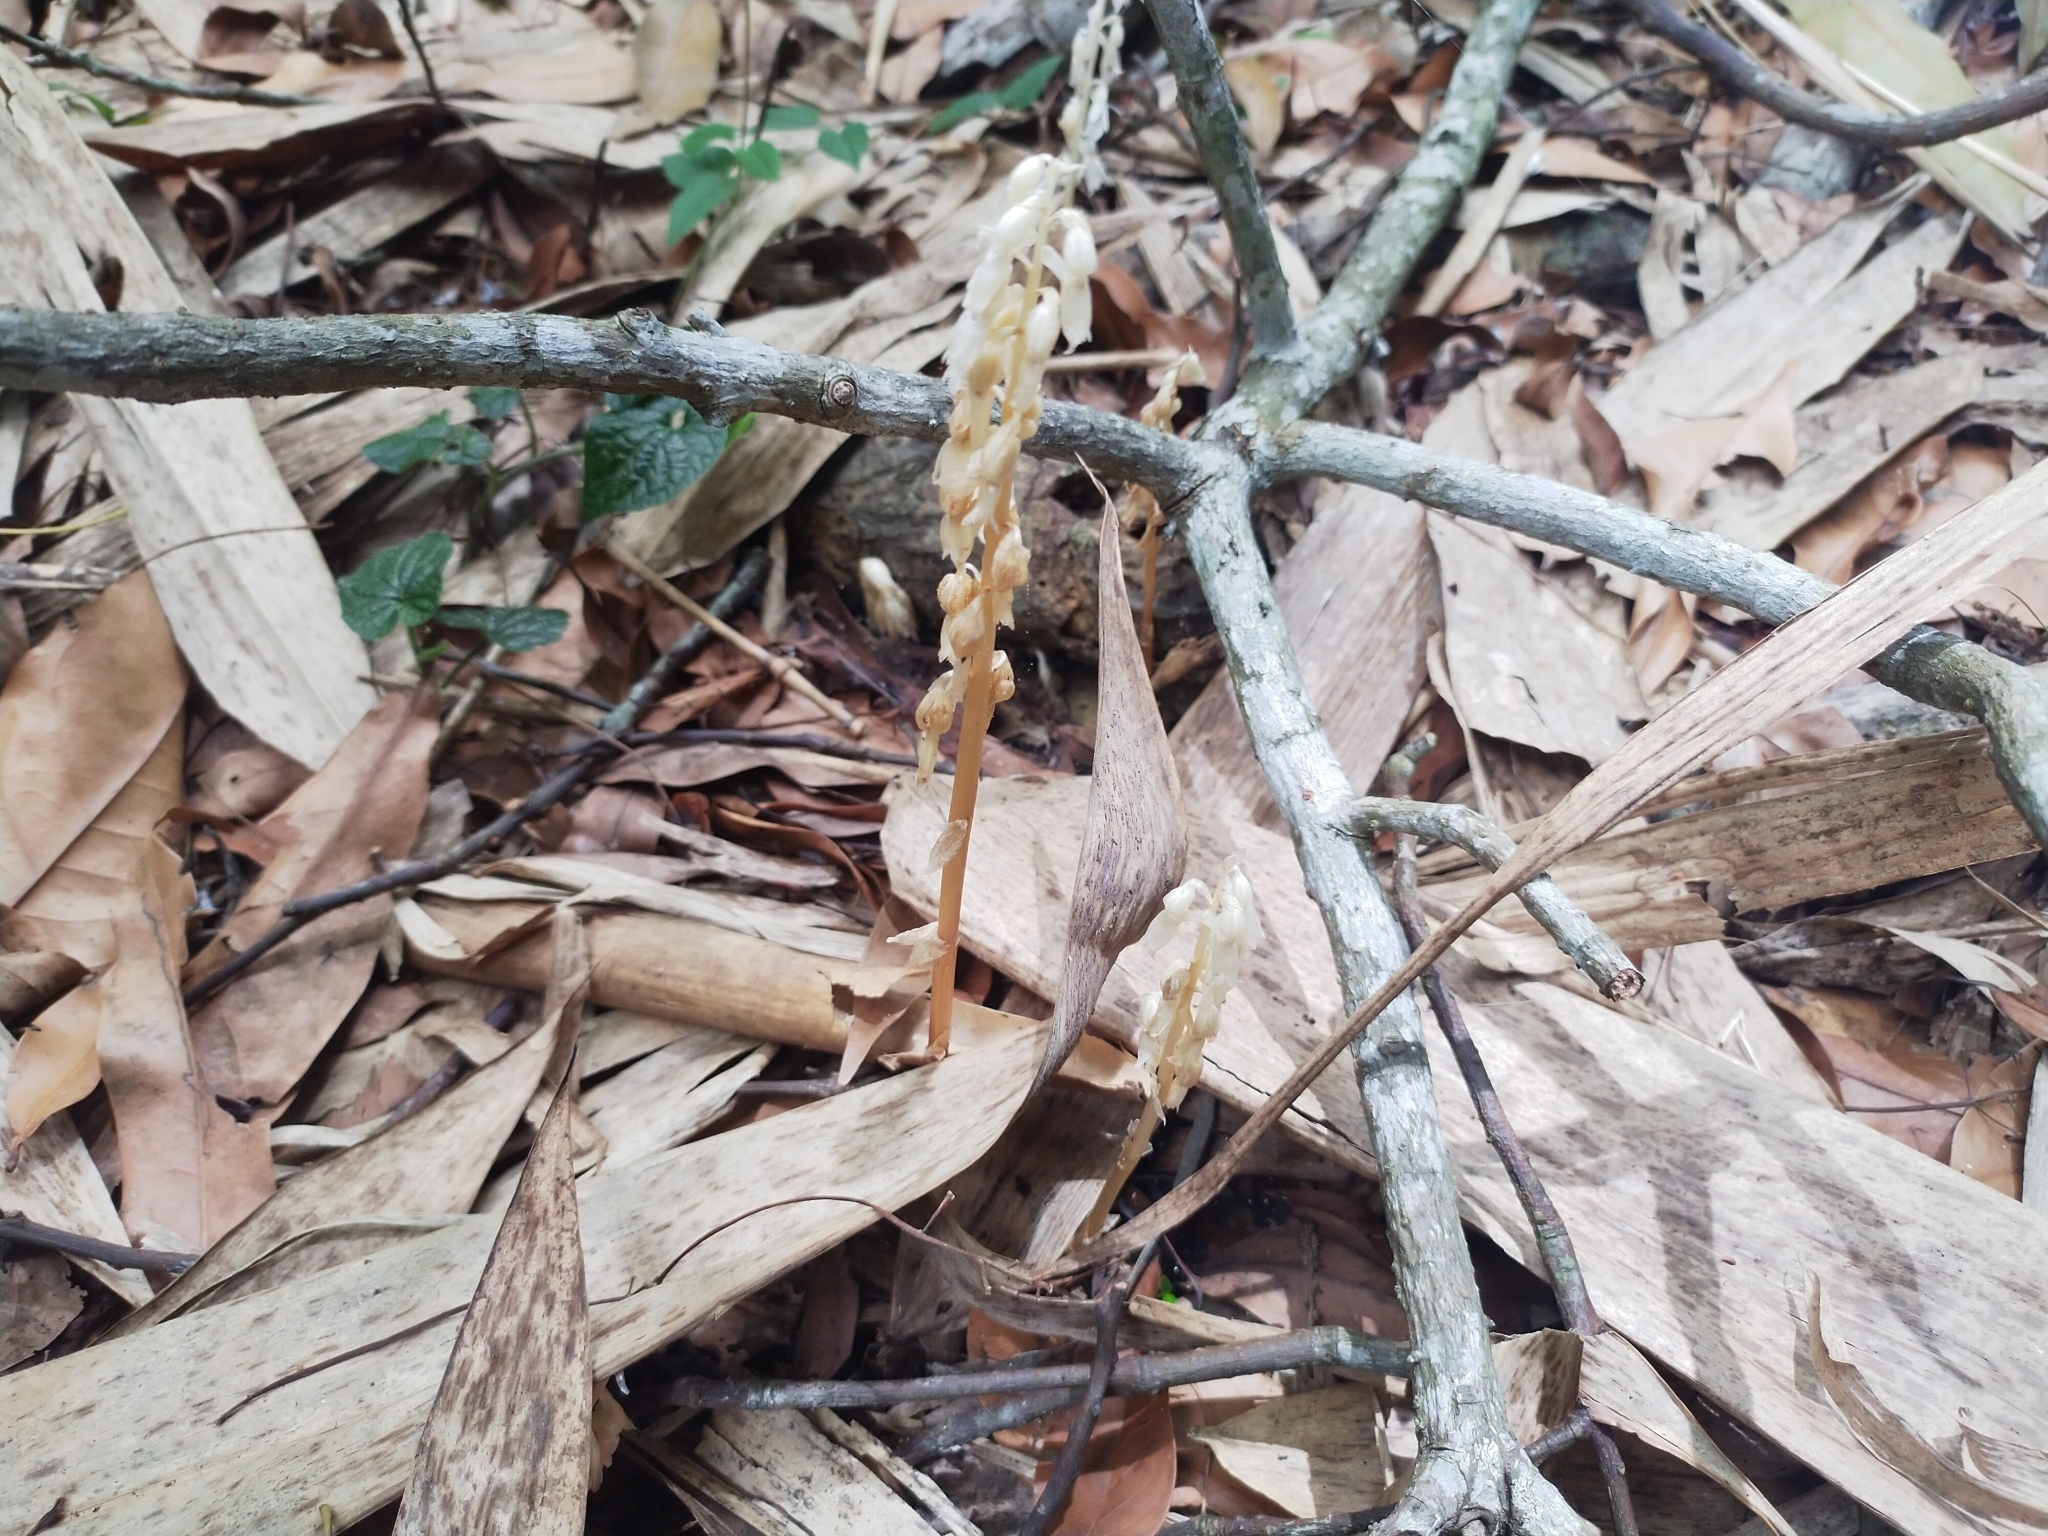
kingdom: Plantae
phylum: Tracheophyta
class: Liliopsida
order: Asparagales
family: Orchidaceae
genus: Epipogium
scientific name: Epipogium roseum
